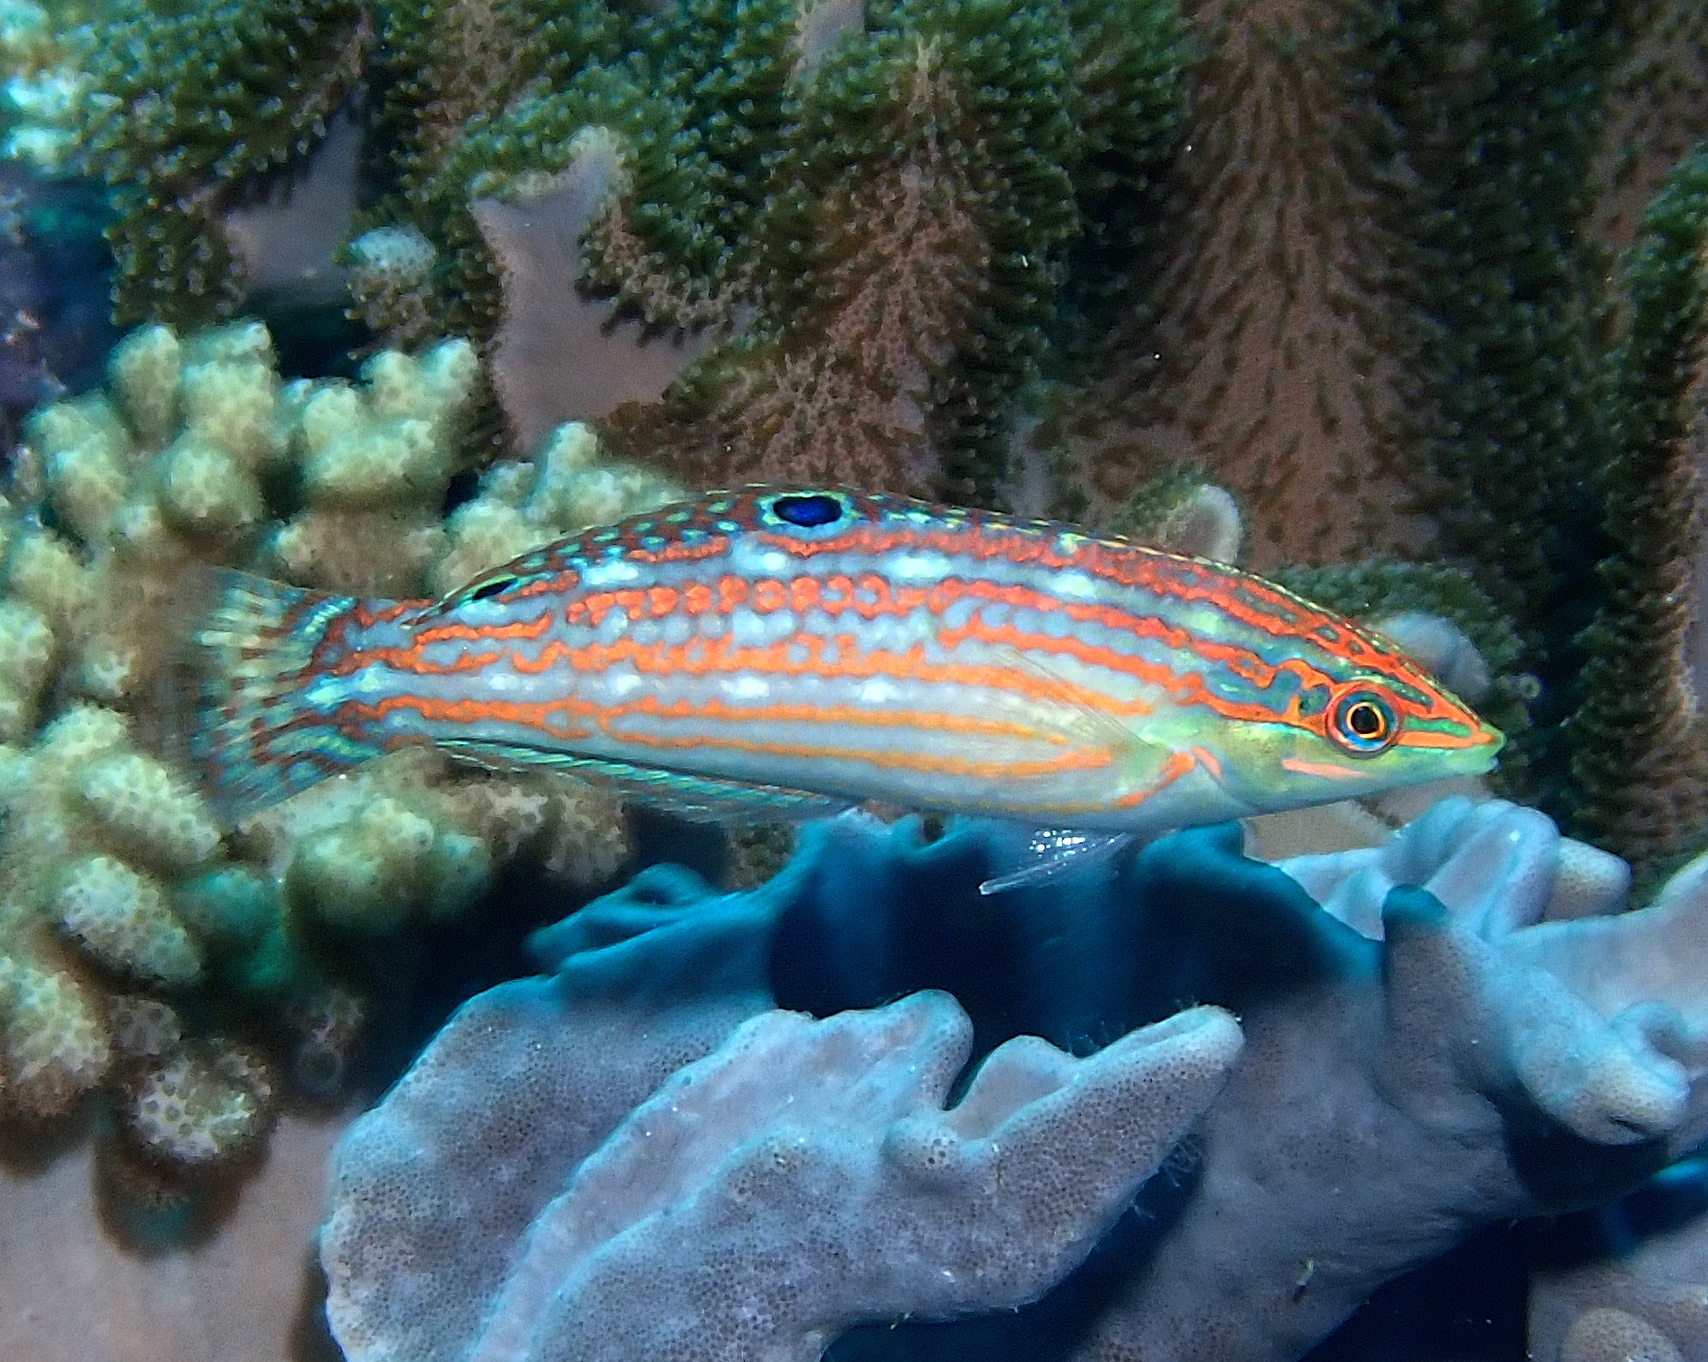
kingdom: Animalia
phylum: Chordata
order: Perciformes
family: Labridae
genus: Halichoeres
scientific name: Halichoeres claudia
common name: Claudia's wrasse
